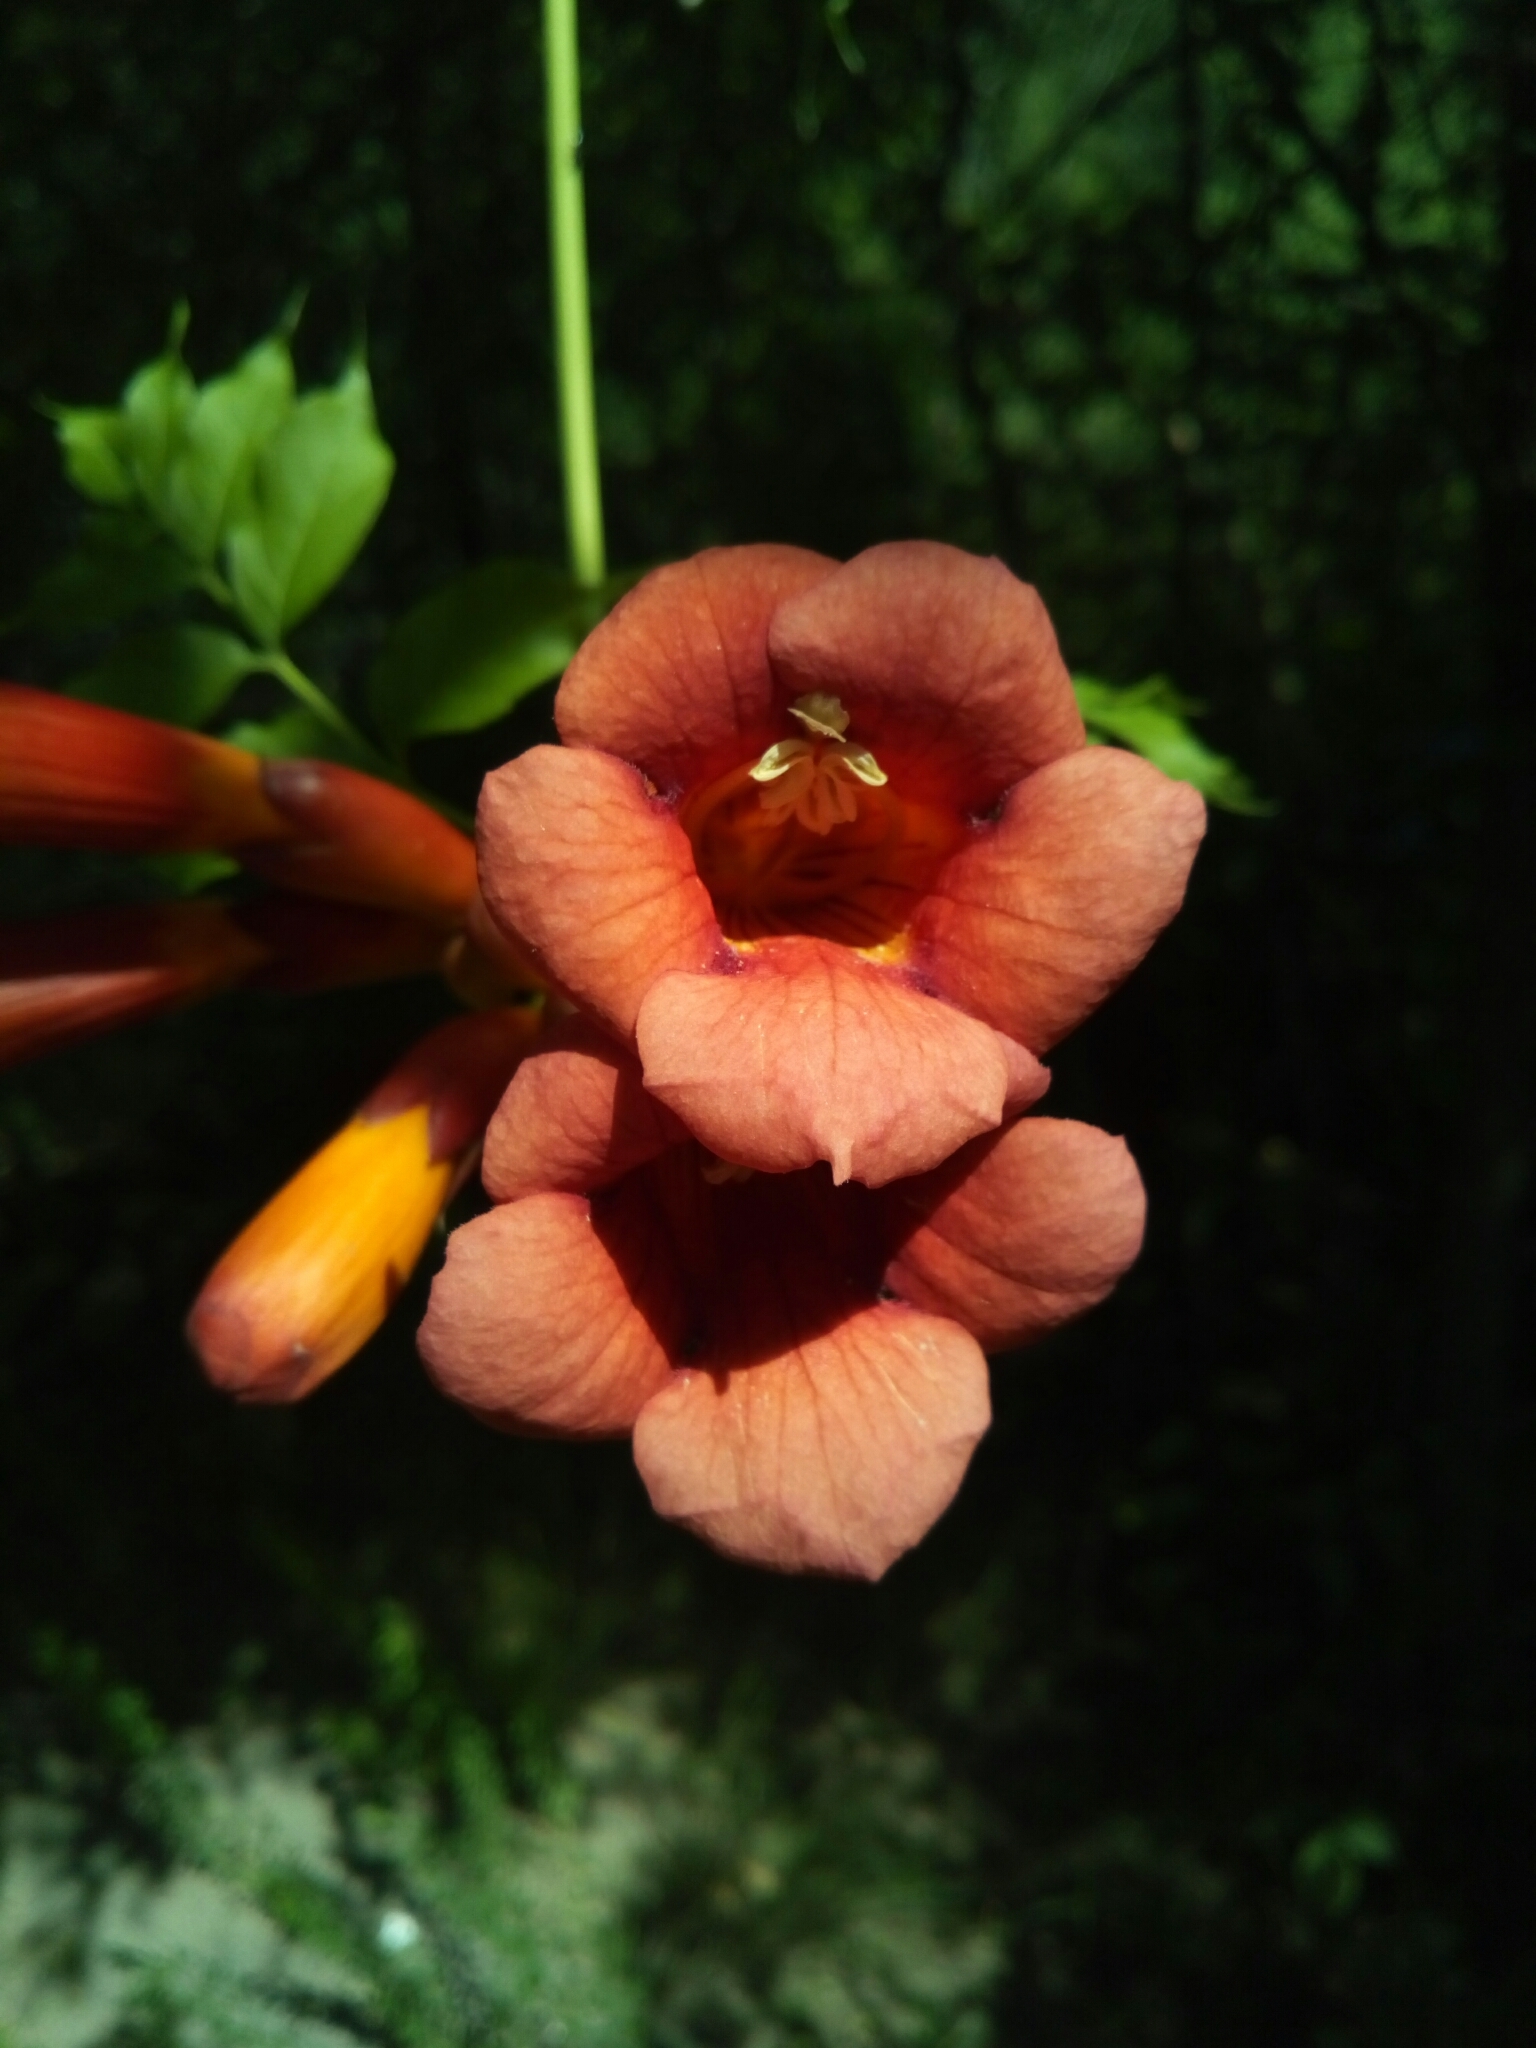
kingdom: Plantae
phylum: Tracheophyta
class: Magnoliopsida
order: Lamiales
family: Bignoniaceae
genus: Campsis
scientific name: Campsis radicans
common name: Trumpet-creeper
